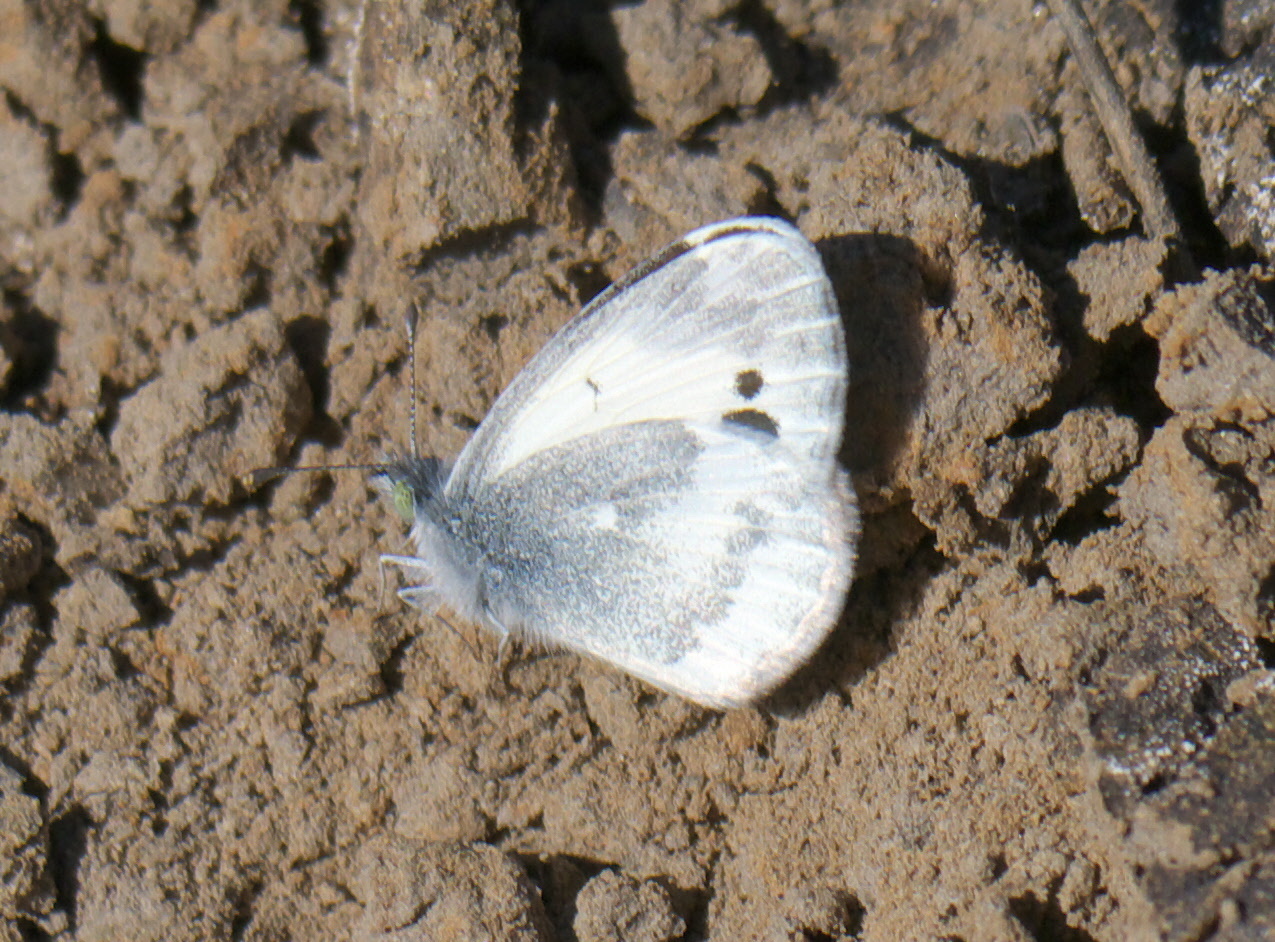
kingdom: Animalia
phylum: Arthropoda
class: Insecta
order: Lepidoptera
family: Pieridae
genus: Nathalis
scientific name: Nathalis iole
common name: Dainty sulphur
